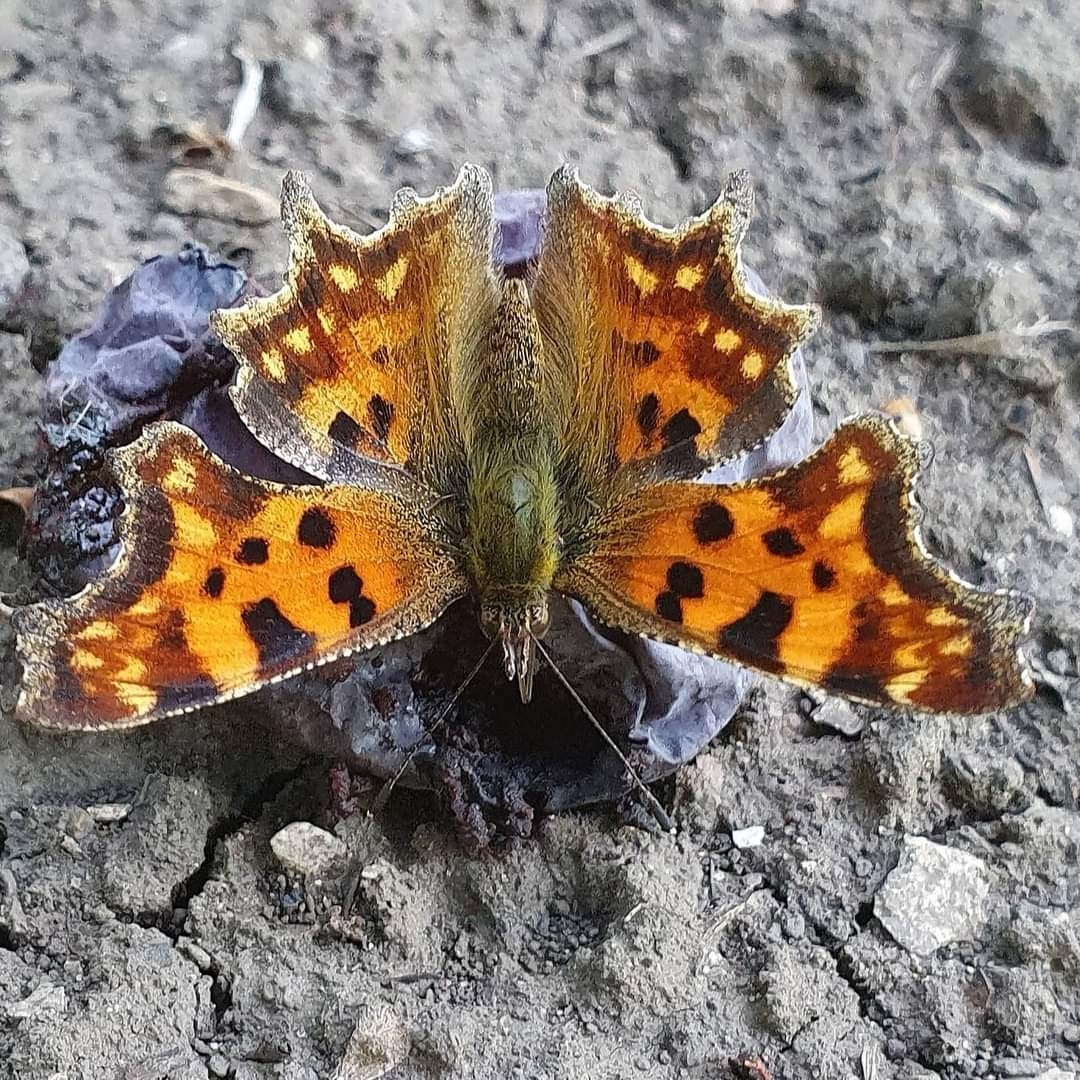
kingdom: Animalia
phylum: Arthropoda
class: Insecta
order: Lepidoptera
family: Nymphalidae
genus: Polygonia
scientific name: Polygonia c-album
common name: Comma
